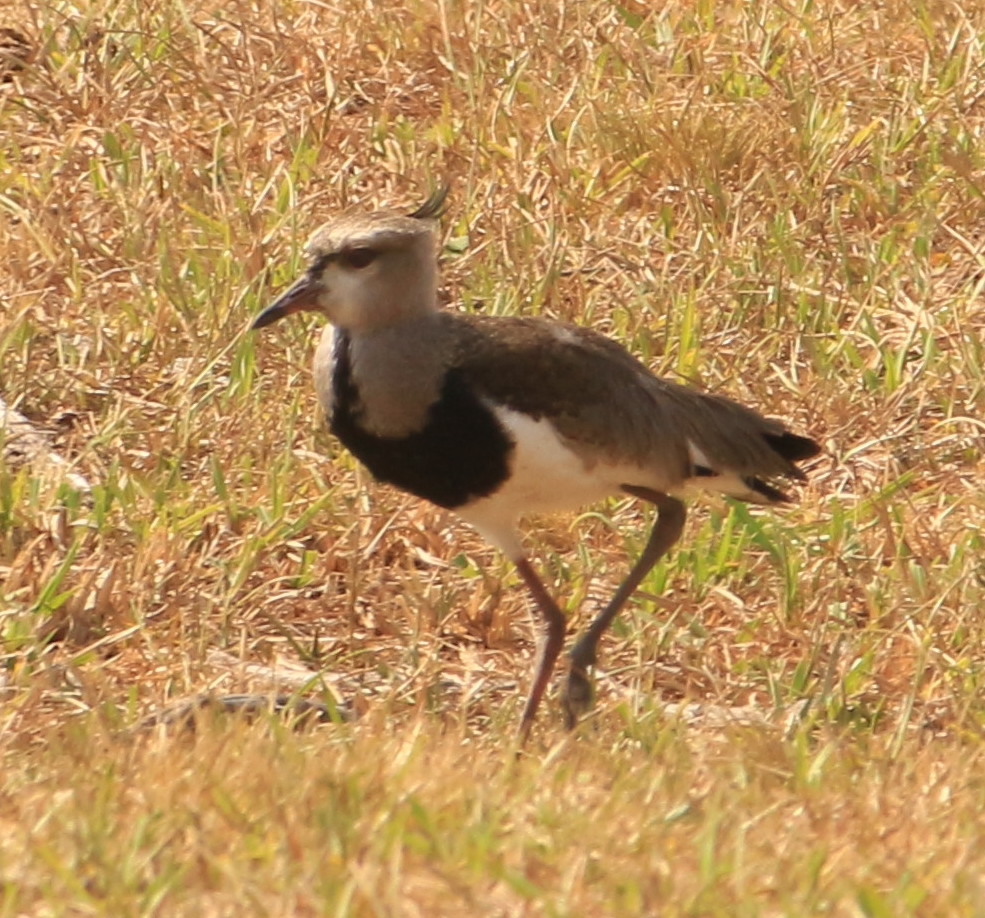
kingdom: Animalia
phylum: Chordata
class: Aves
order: Charadriiformes
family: Charadriidae
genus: Vanellus
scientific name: Vanellus chilensis
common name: Southern lapwing
